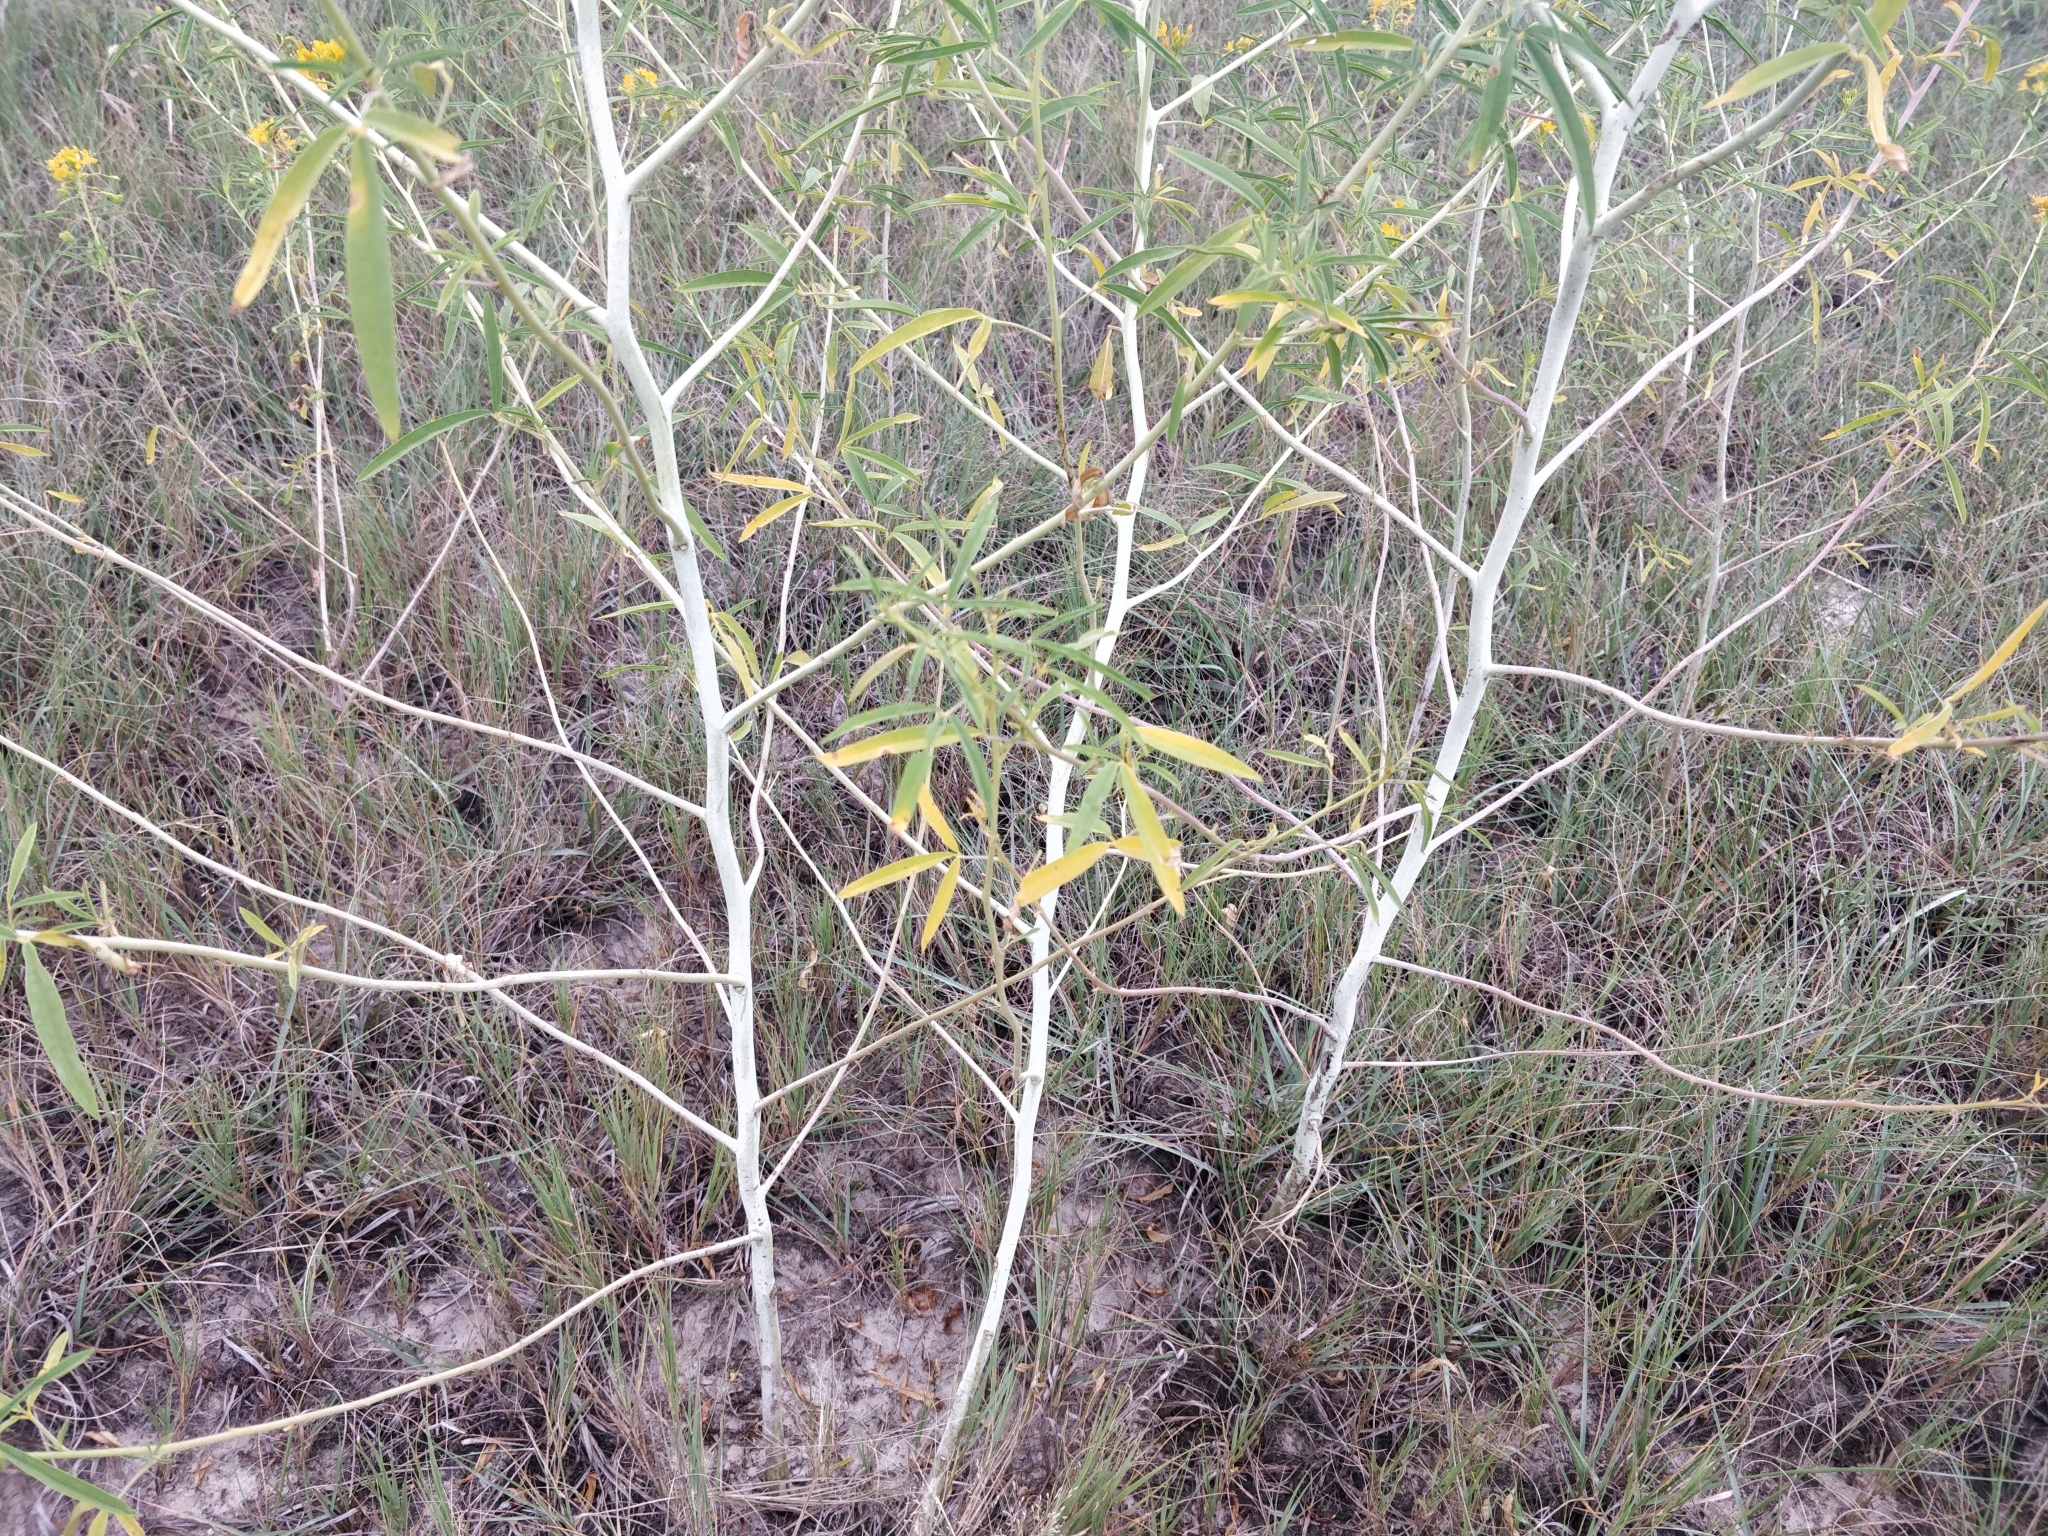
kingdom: Plantae
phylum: Tracheophyta
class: Magnoliopsida
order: Brassicales
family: Cleomaceae
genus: Cleomella
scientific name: Cleomella angustifolia
